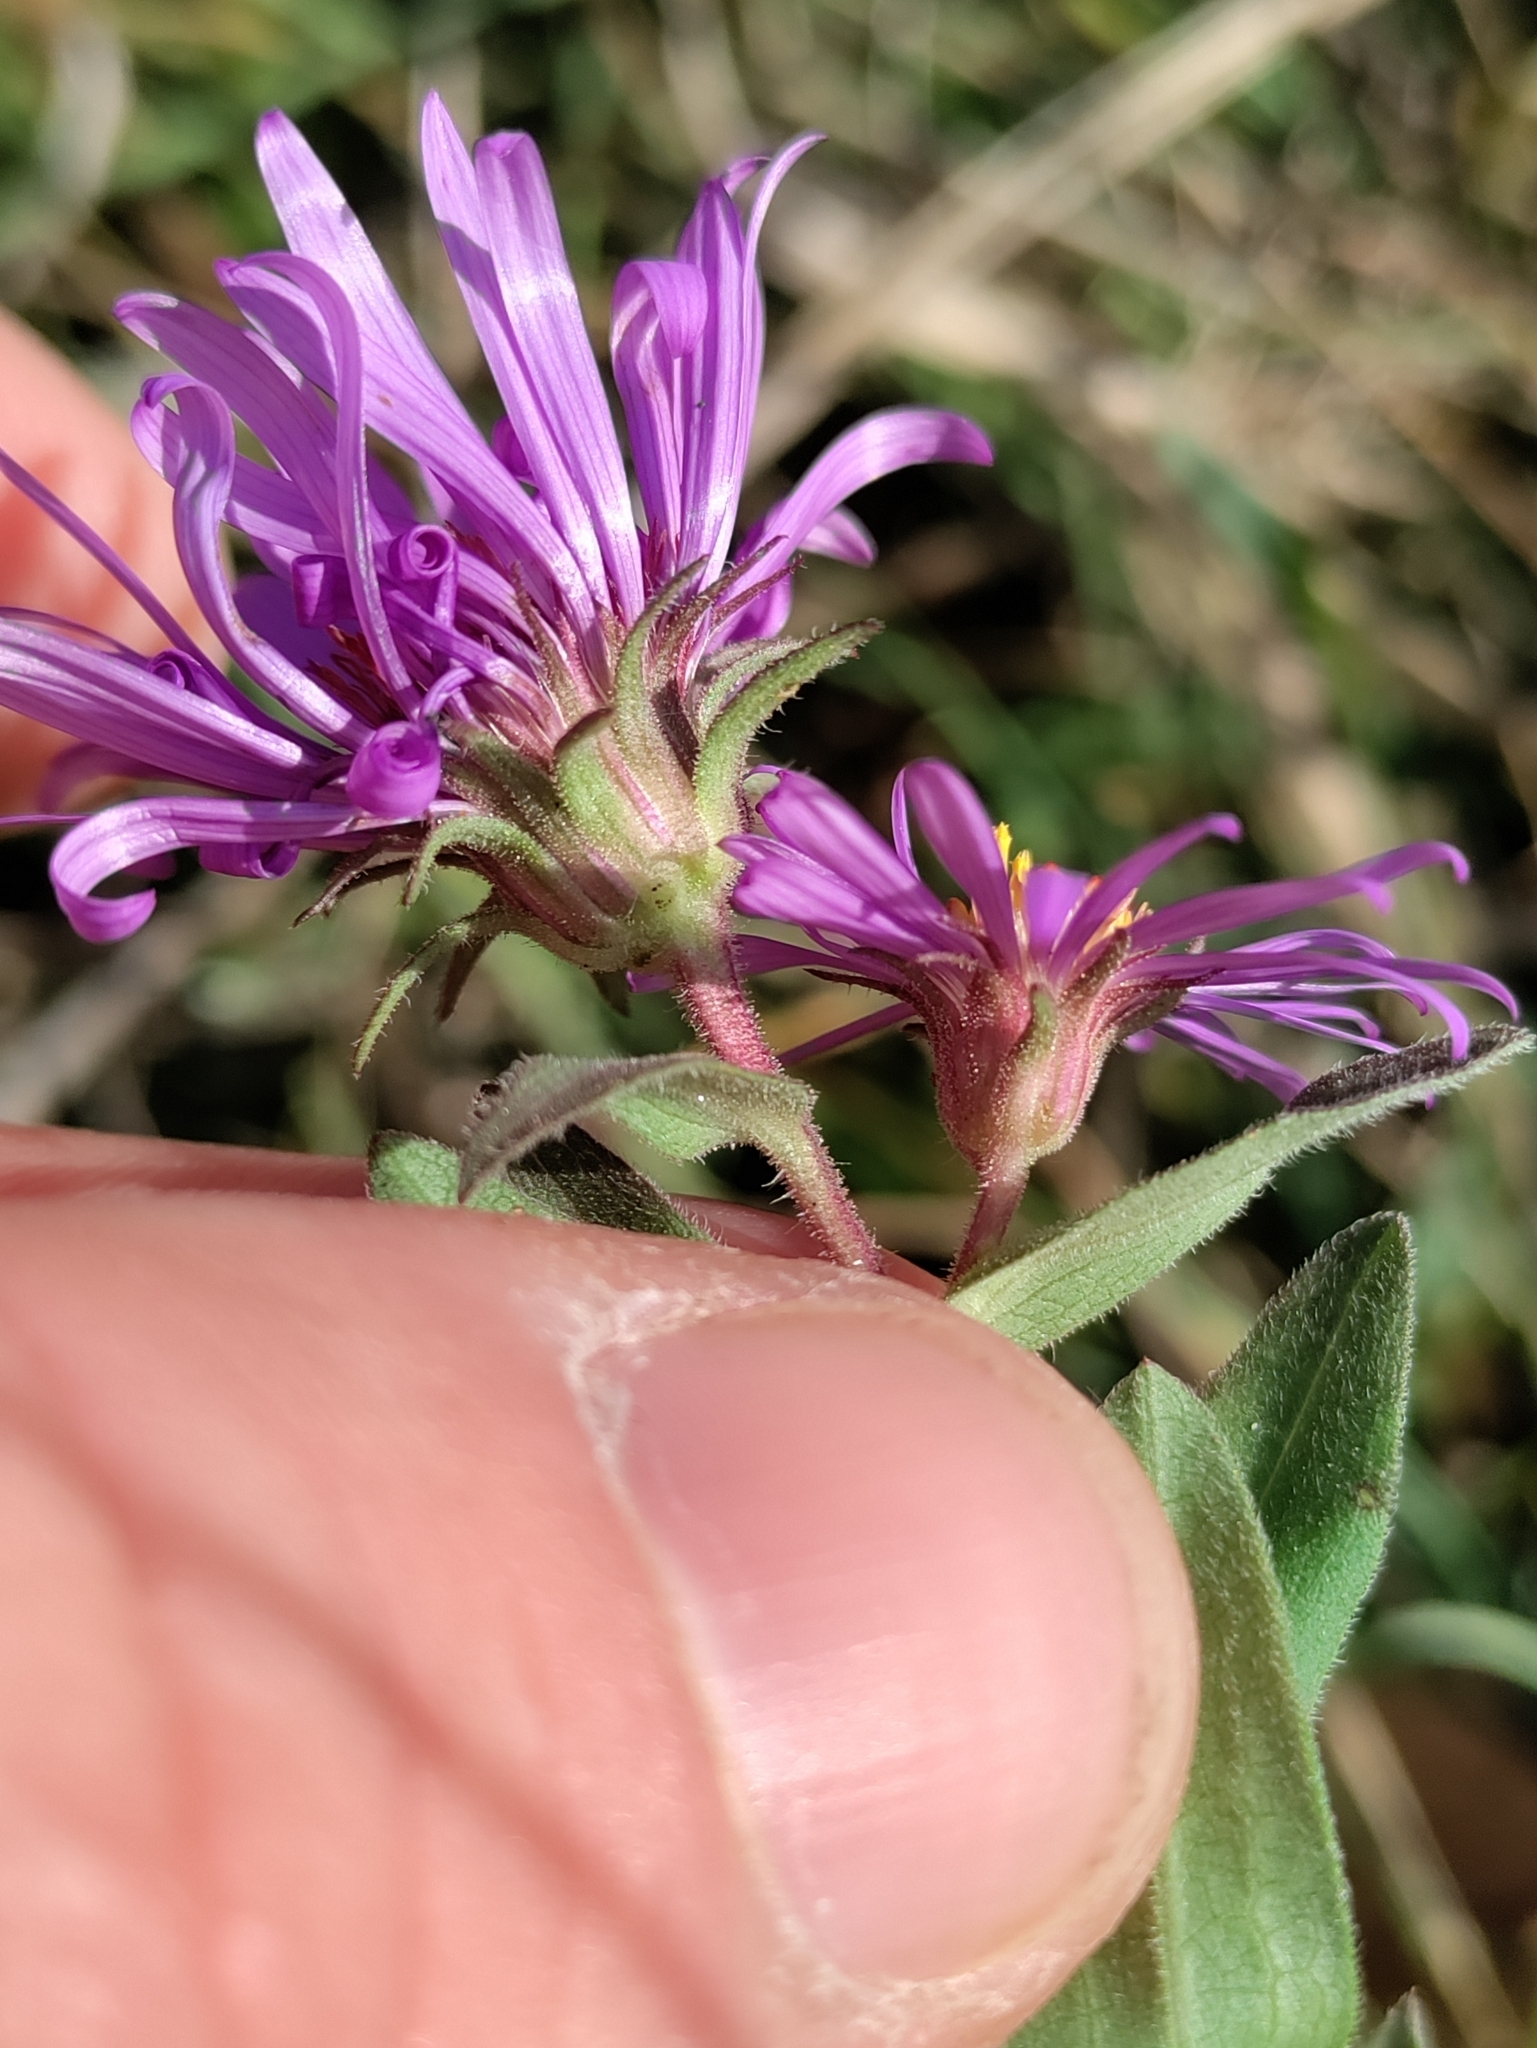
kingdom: Plantae
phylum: Tracheophyta
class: Magnoliopsida
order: Asterales
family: Asteraceae
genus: Symphyotrichum
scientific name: Symphyotrichum novae-angliae
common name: Michaelmas daisy
